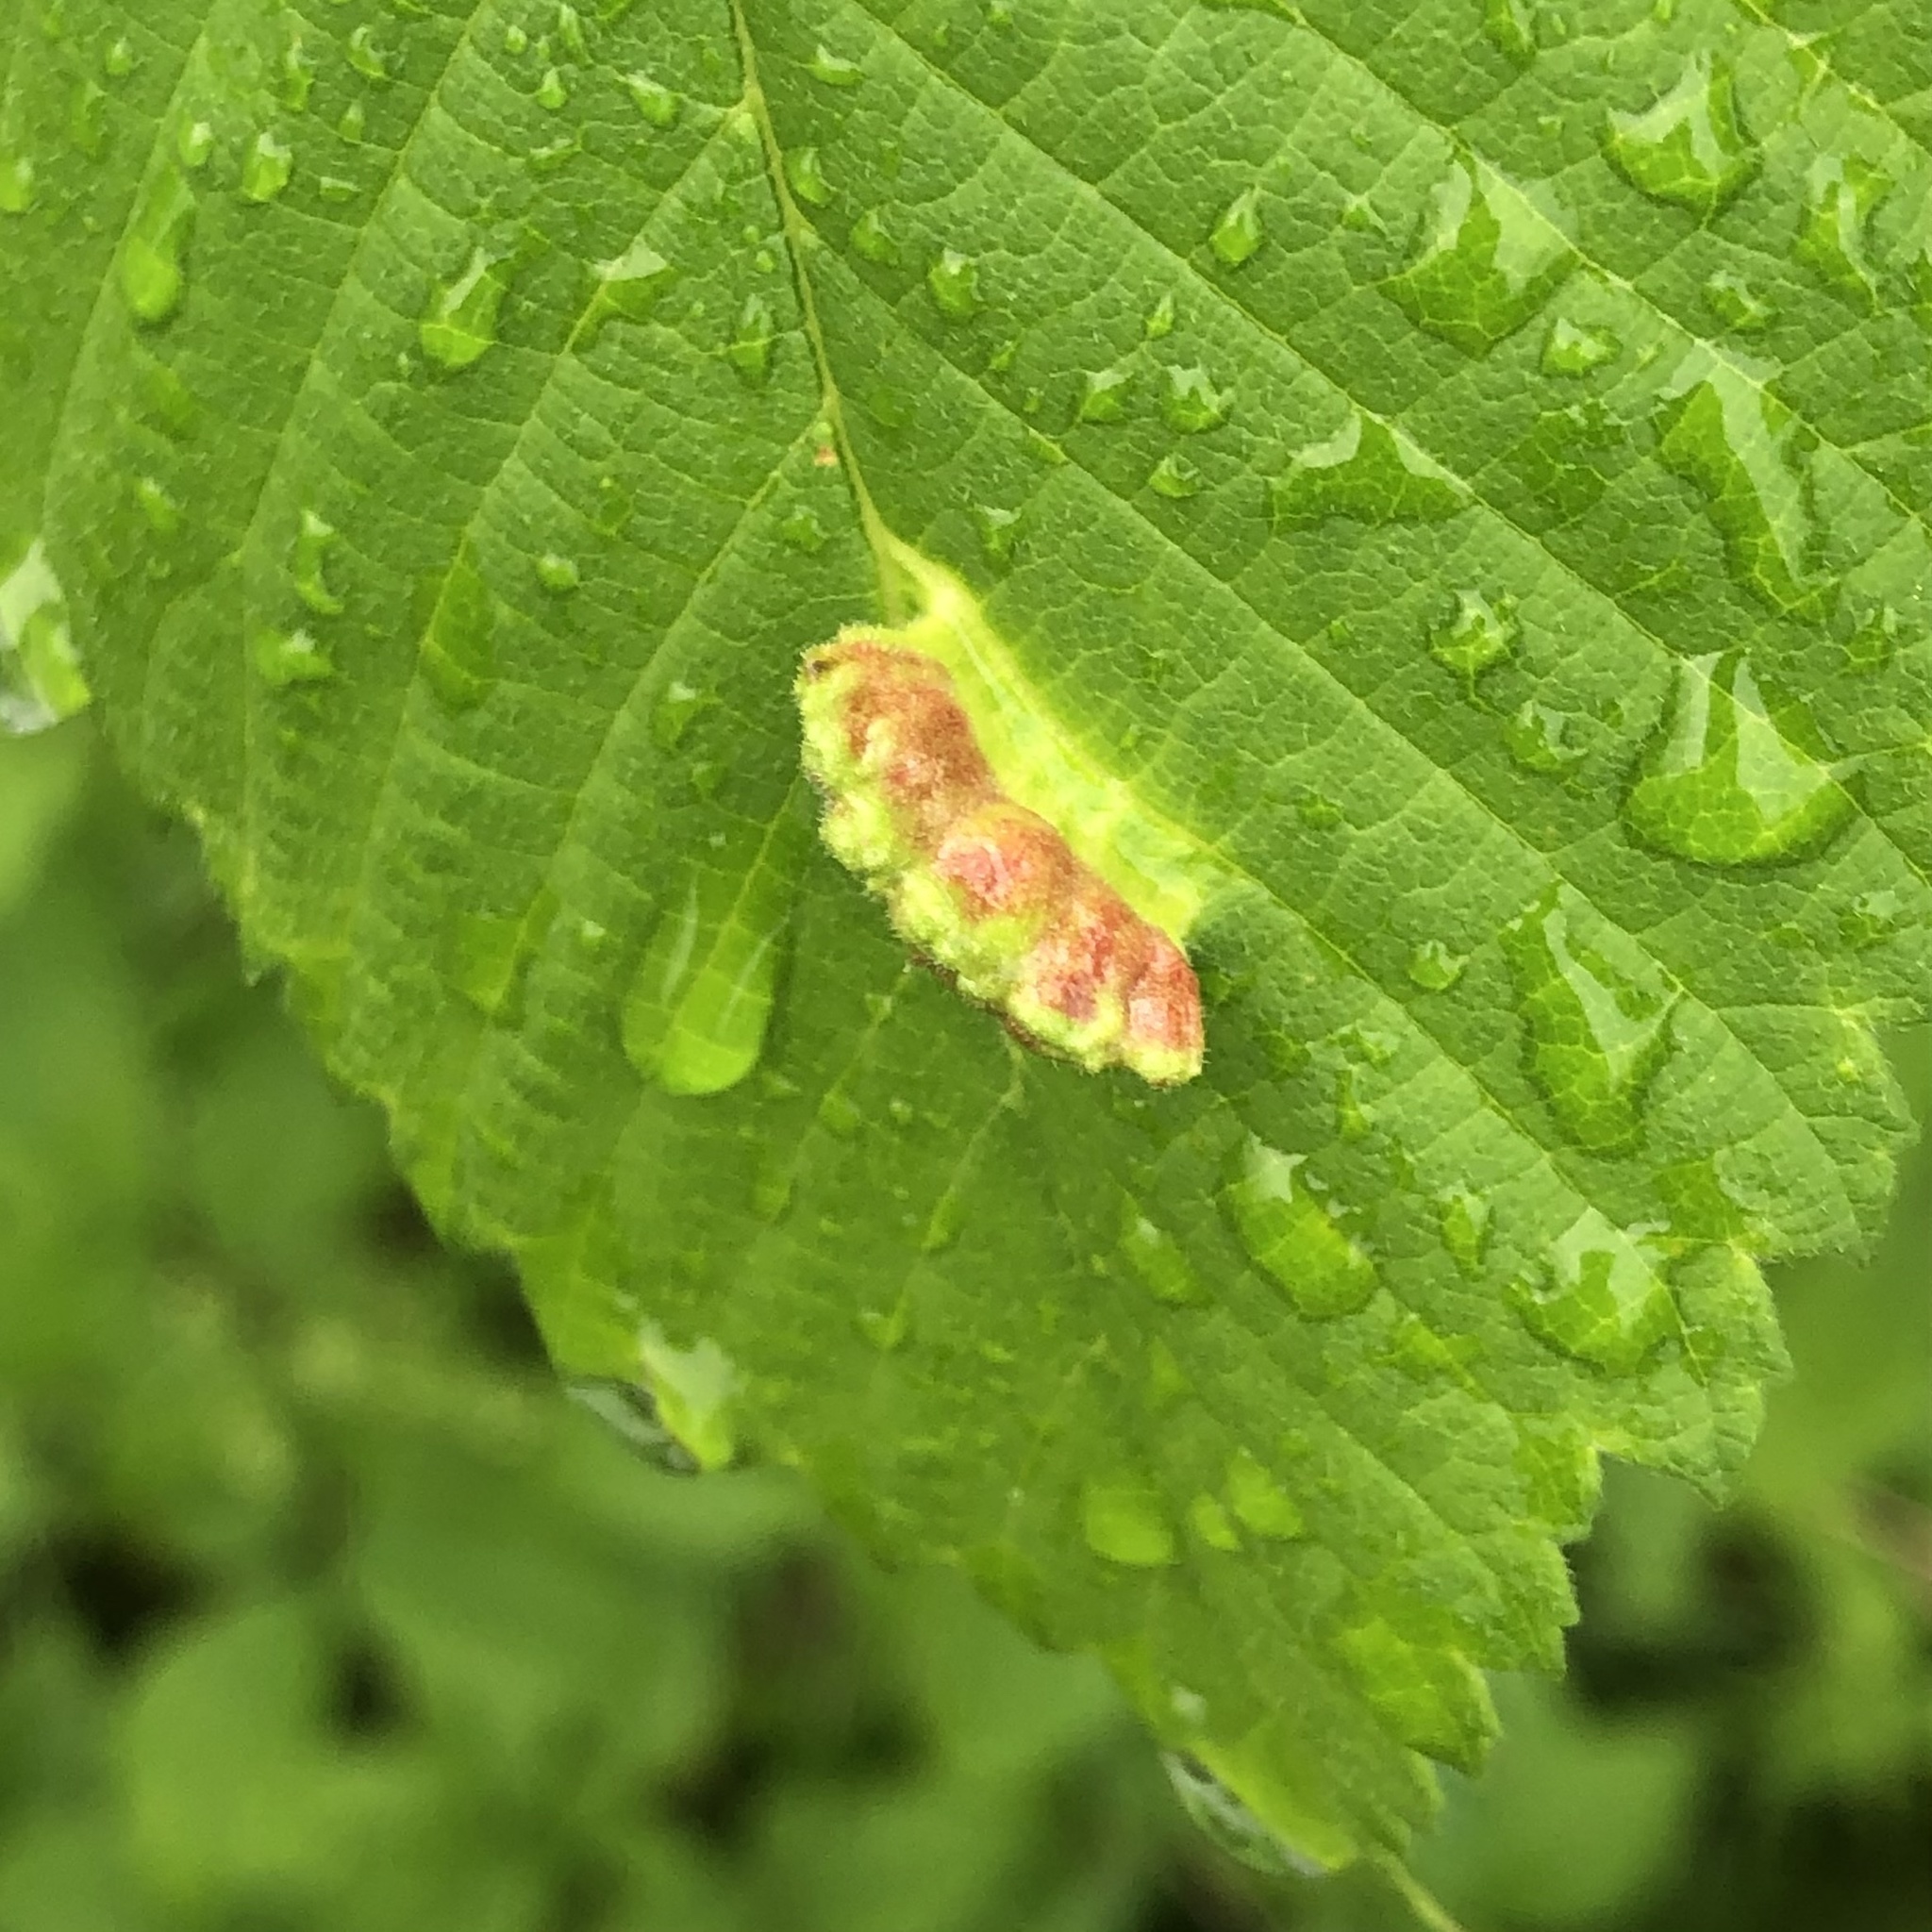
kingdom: Animalia
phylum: Arthropoda
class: Insecta
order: Hemiptera
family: Aphididae
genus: Colopha
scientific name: Colopha ulmicola
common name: Elm cockscombgall aphid
